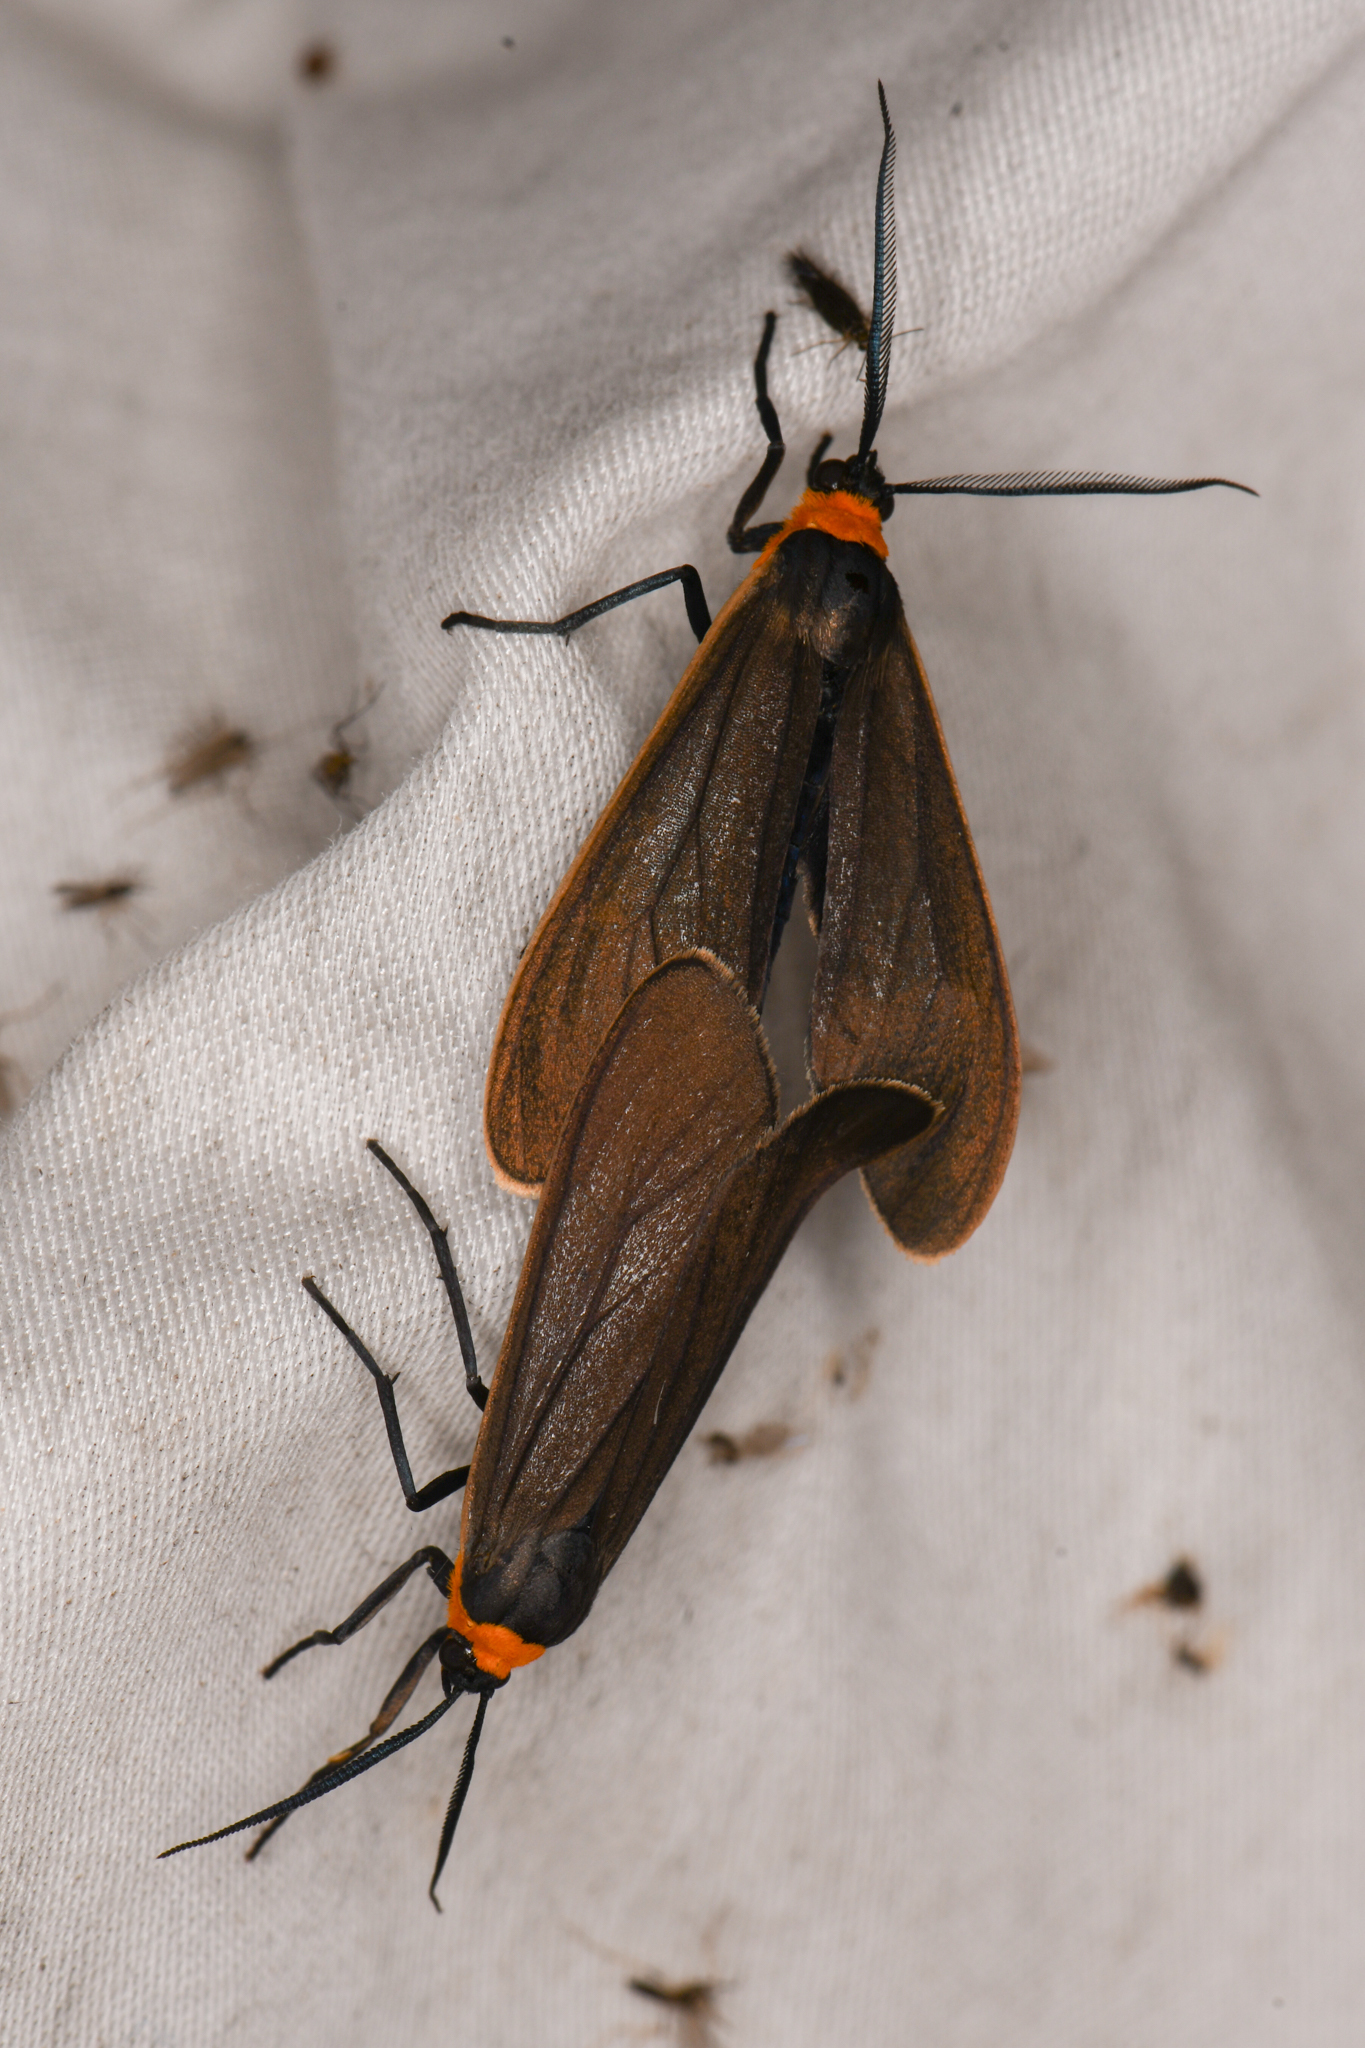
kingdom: Animalia
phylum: Arthropoda
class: Insecta
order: Lepidoptera
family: Erebidae
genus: Cisseps
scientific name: Cisseps fulvicollis
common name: Yellow-collared scape moth
